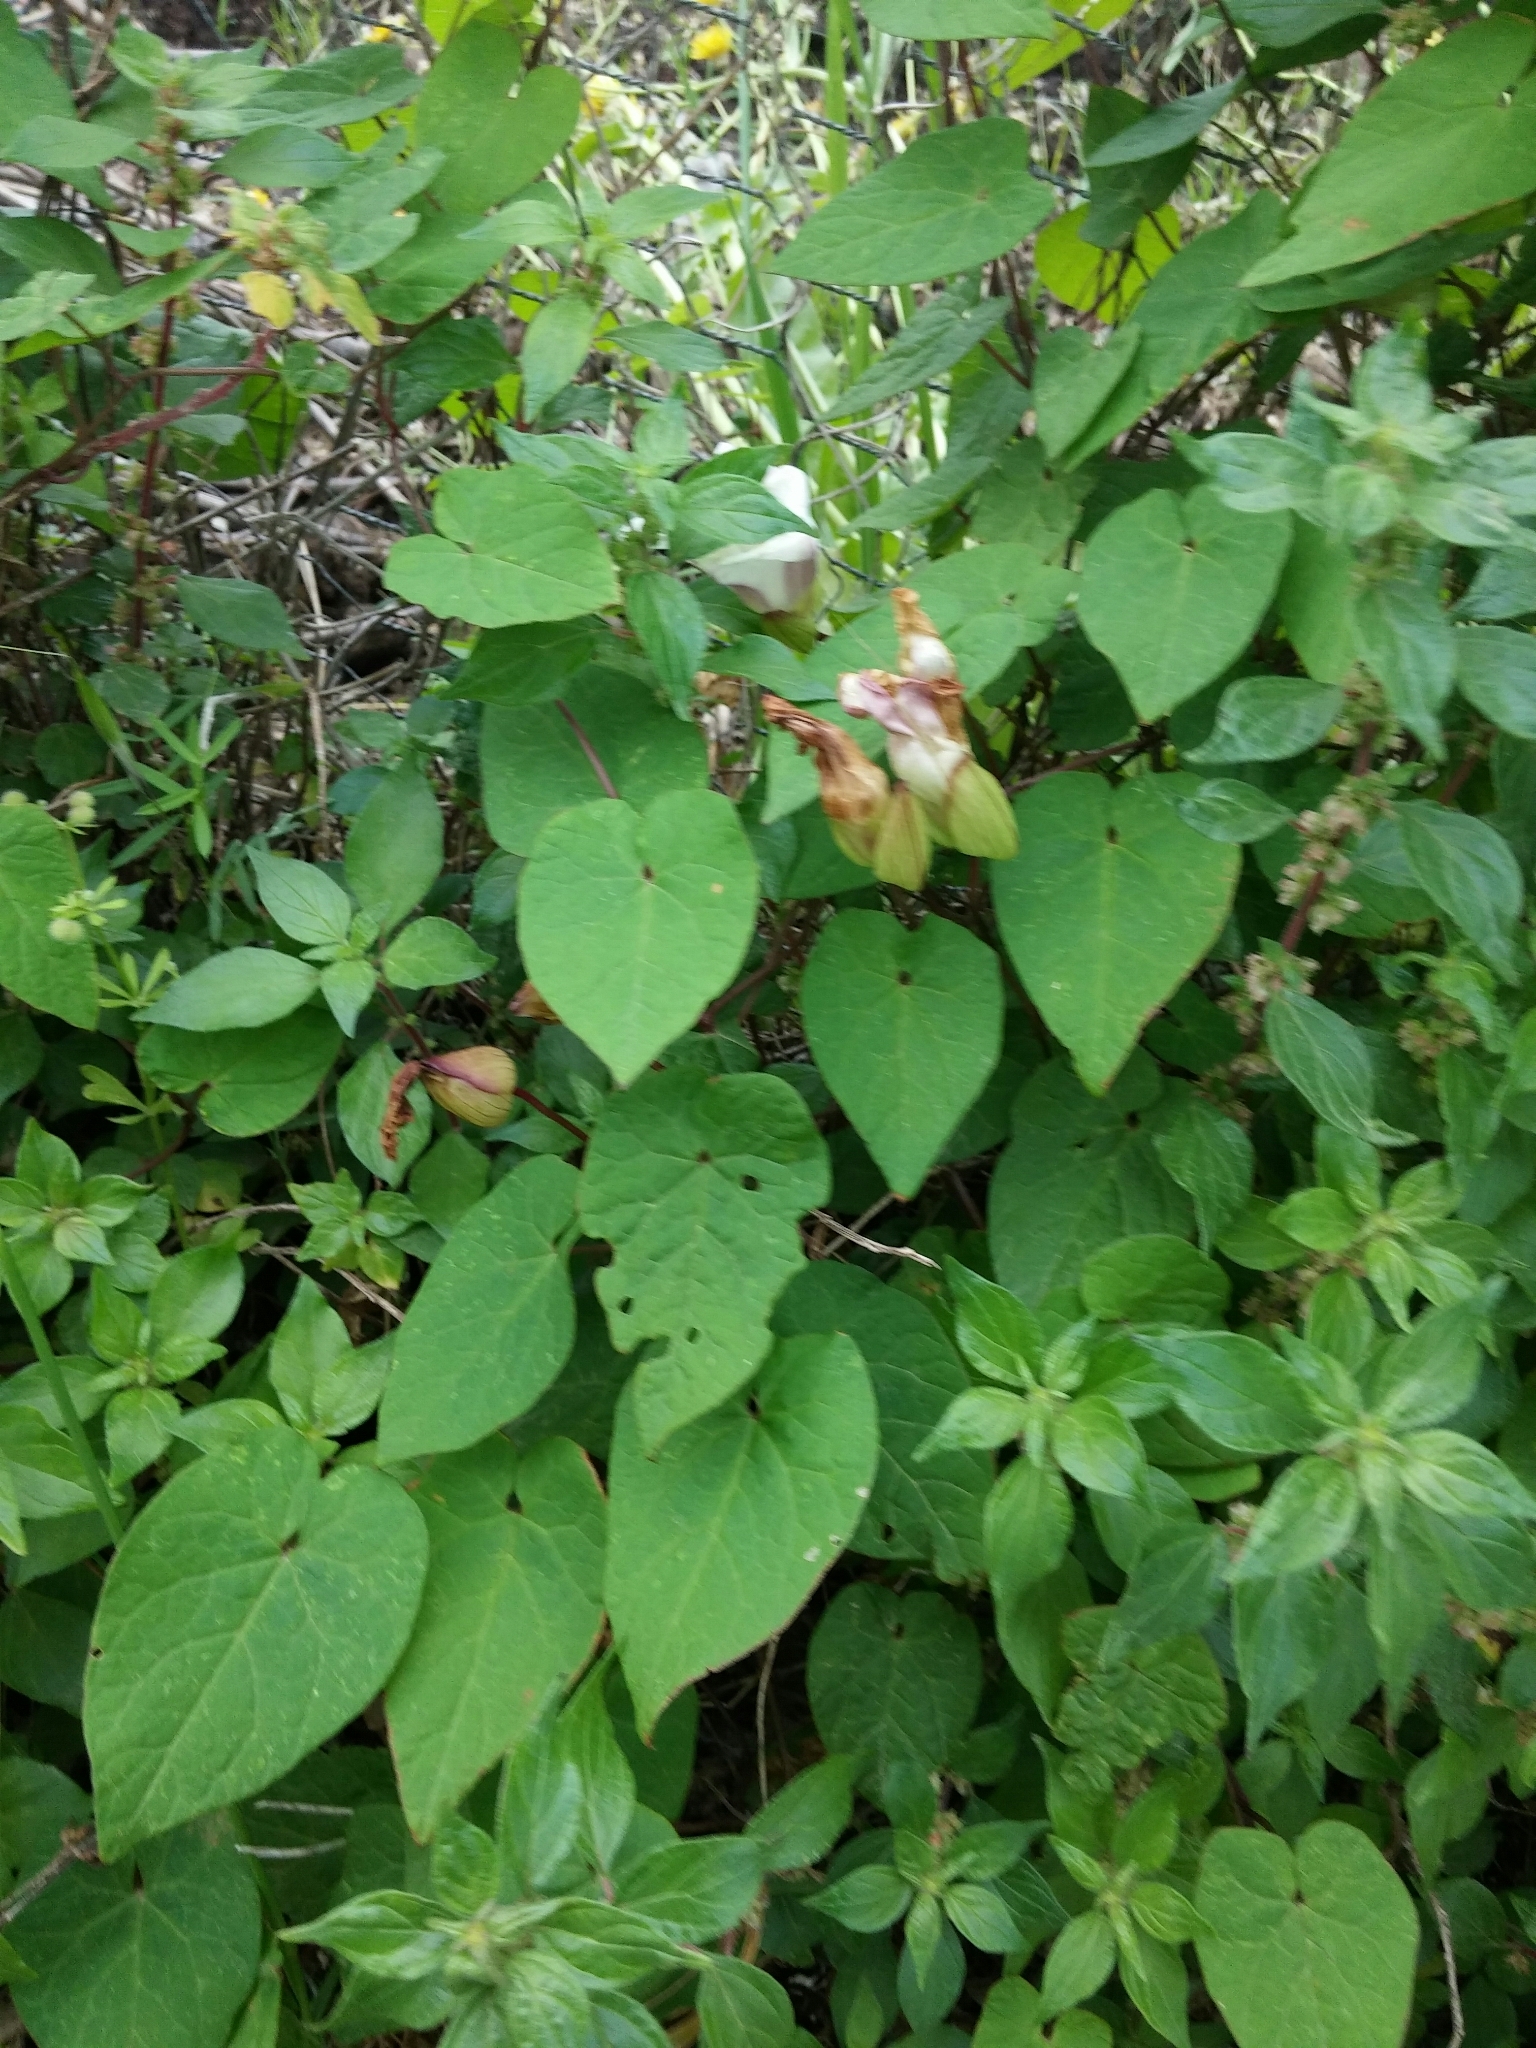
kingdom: Plantae
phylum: Tracheophyta
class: Magnoliopsida
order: Solanales
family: Convolvulaceae
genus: Calystegia
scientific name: Calystegia silvatica
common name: Large bindweed
